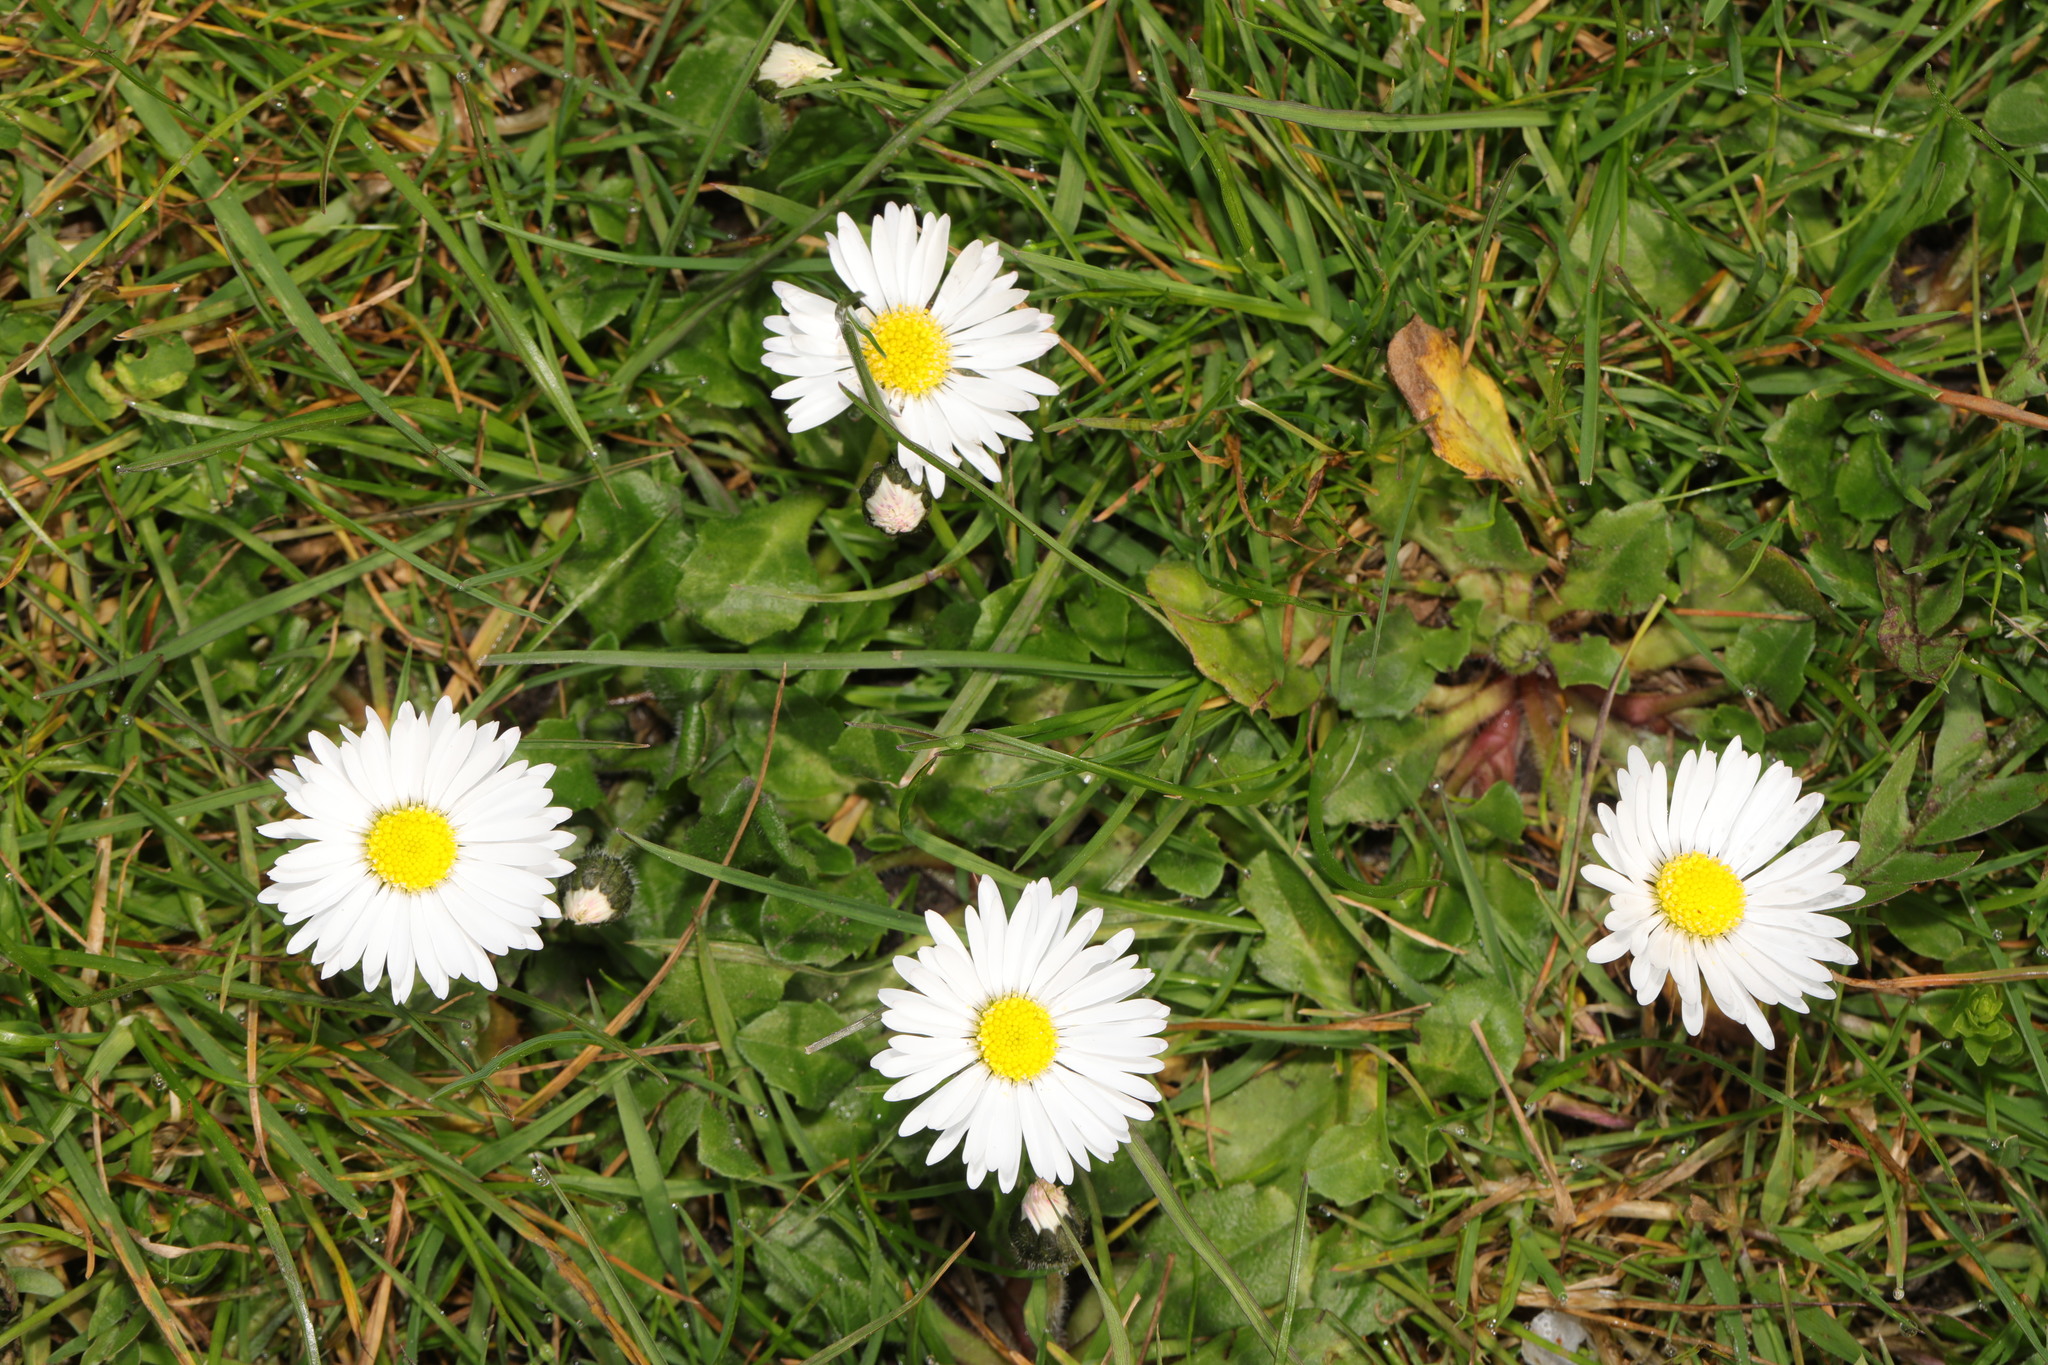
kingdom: Plantae
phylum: Tracheophyta
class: Magnoliopsida
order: Asterales
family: Asteraceae
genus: Bellis
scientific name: Bellis perennis
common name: Lawndaisy
